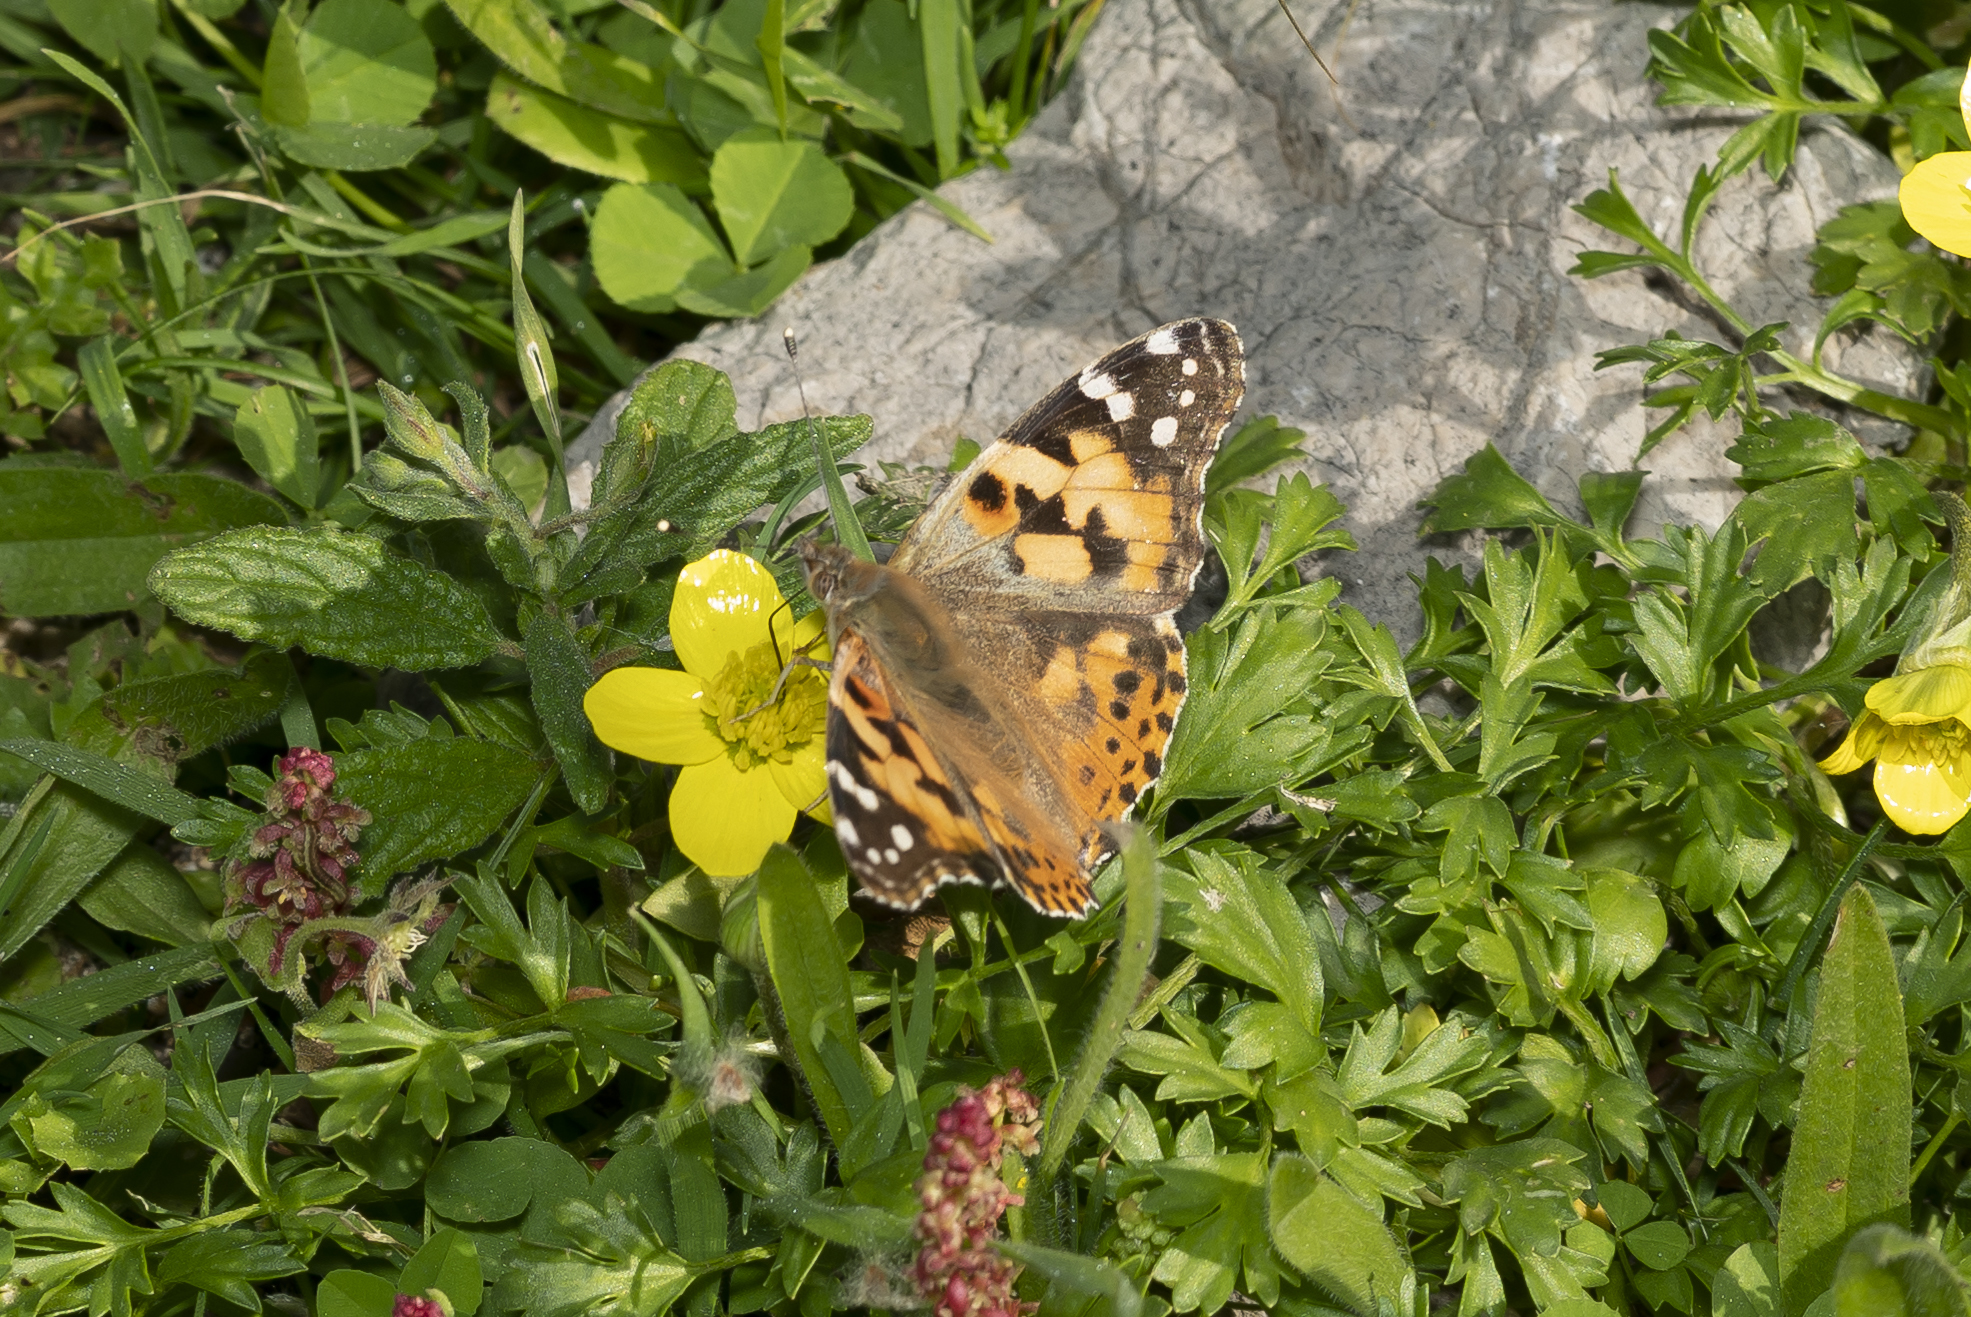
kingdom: Animalia
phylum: Arthropoda
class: Insecta
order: Lepidoptera
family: Nymphalidae
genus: Vanessa
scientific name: Vanessa cardui
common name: Painted lady
